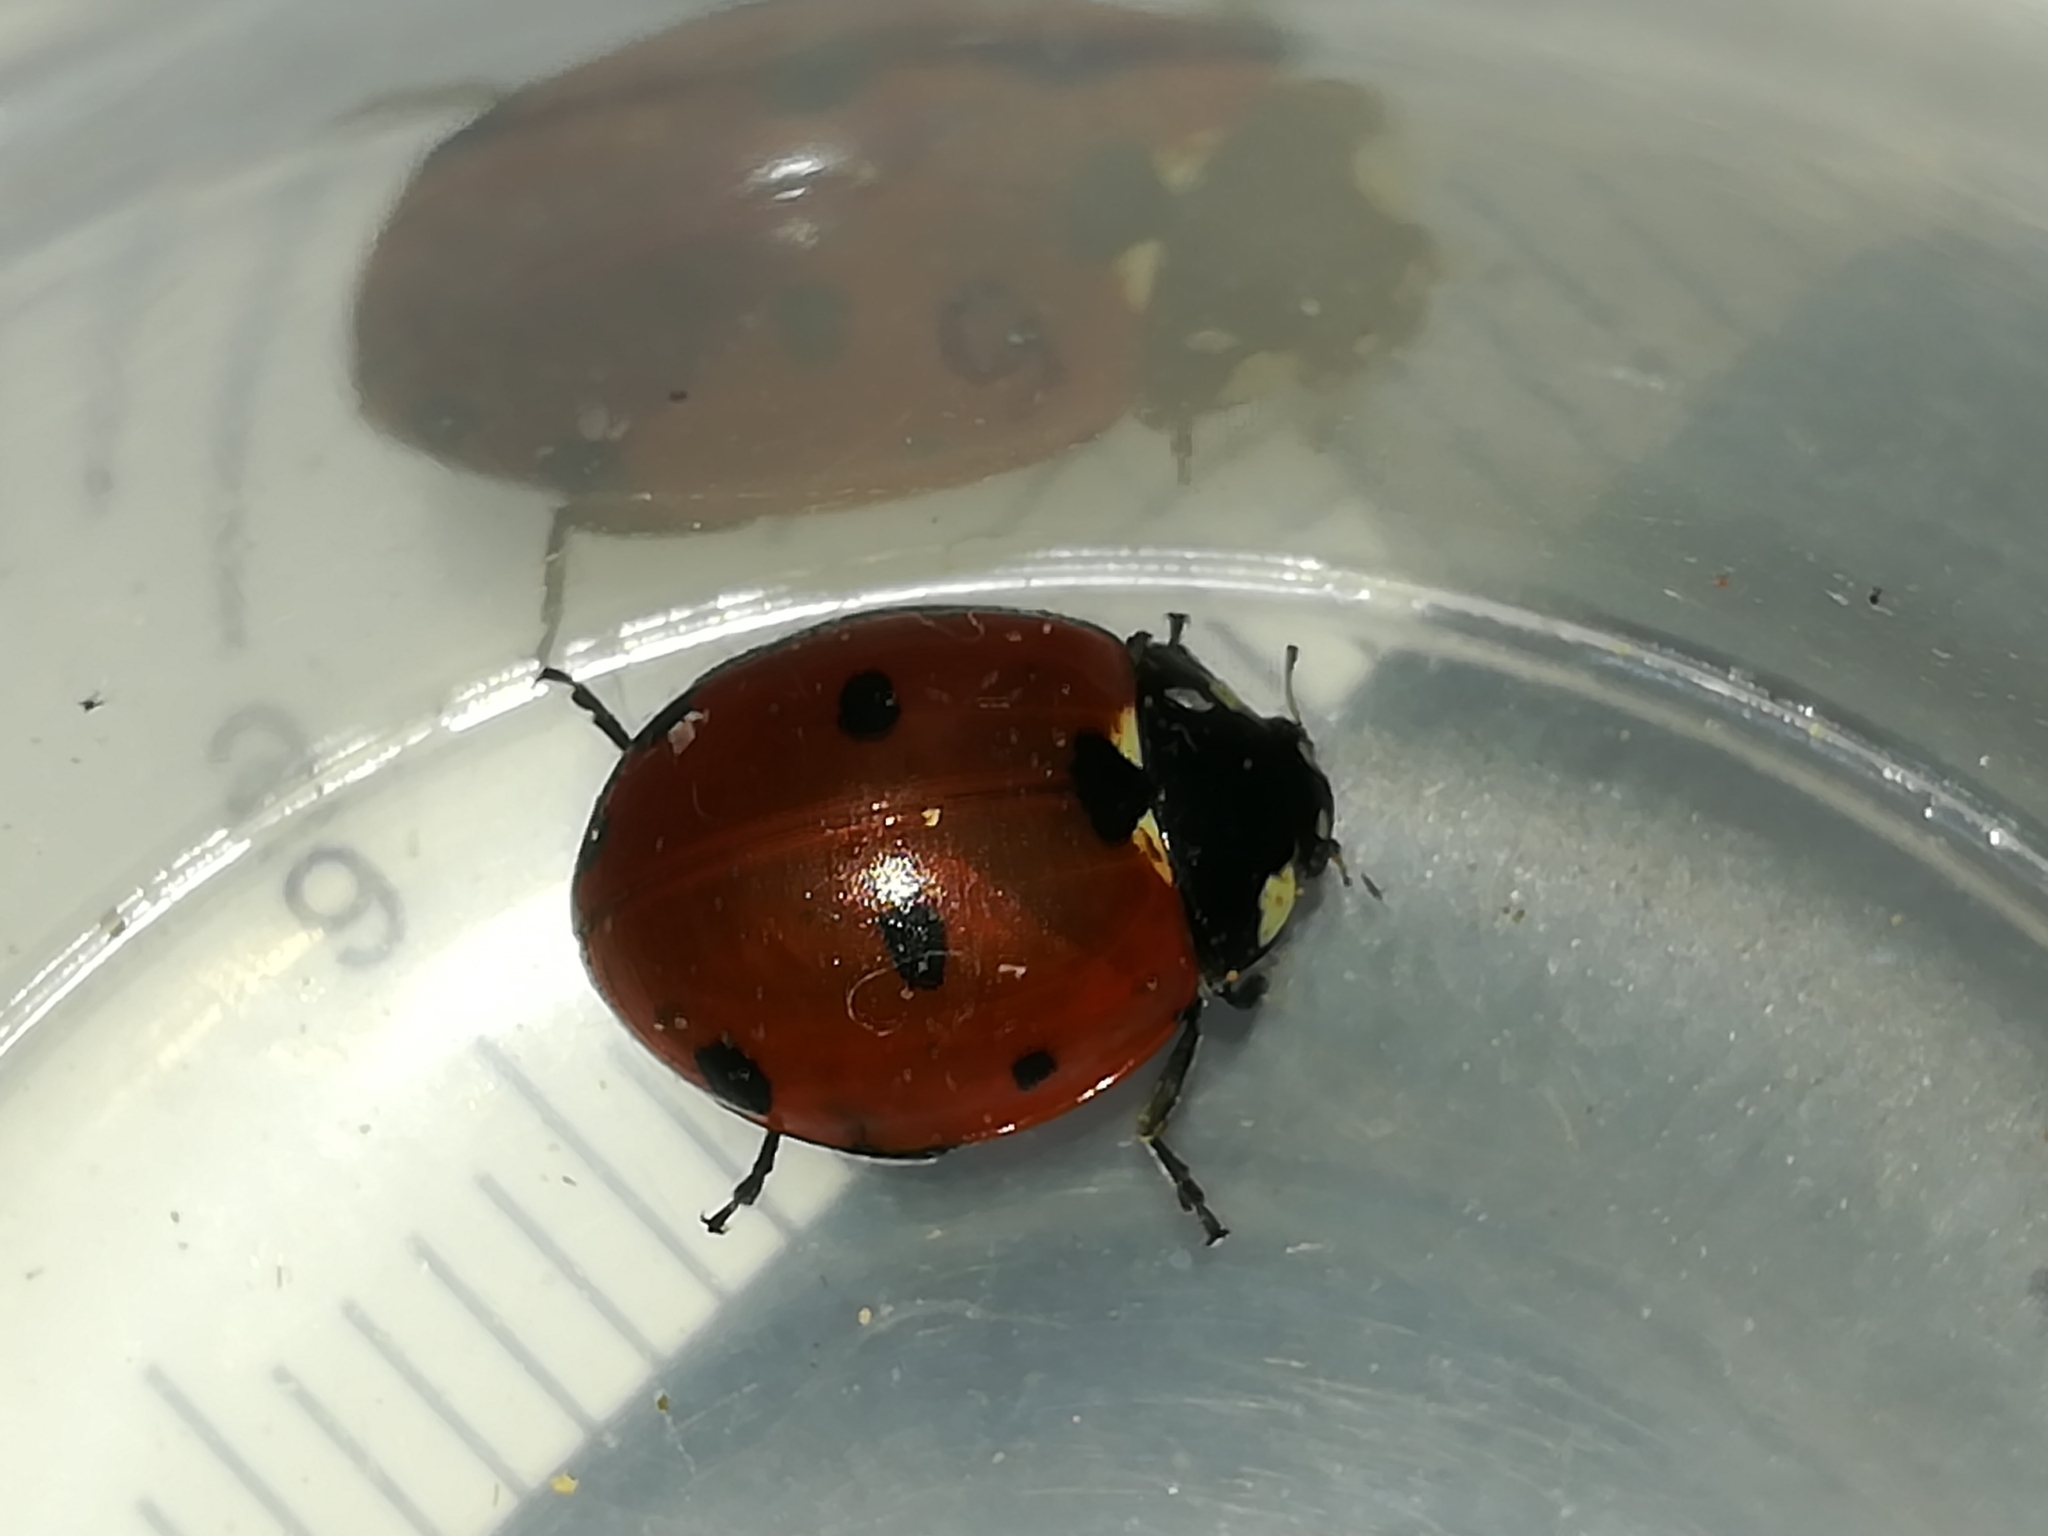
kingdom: Animalia
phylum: Arthropoda
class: Insecta
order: Coleoptera
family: Coccinellidae
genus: Coccinella
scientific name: Coccinella septempunctata
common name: Sevenspotted lady beetle
